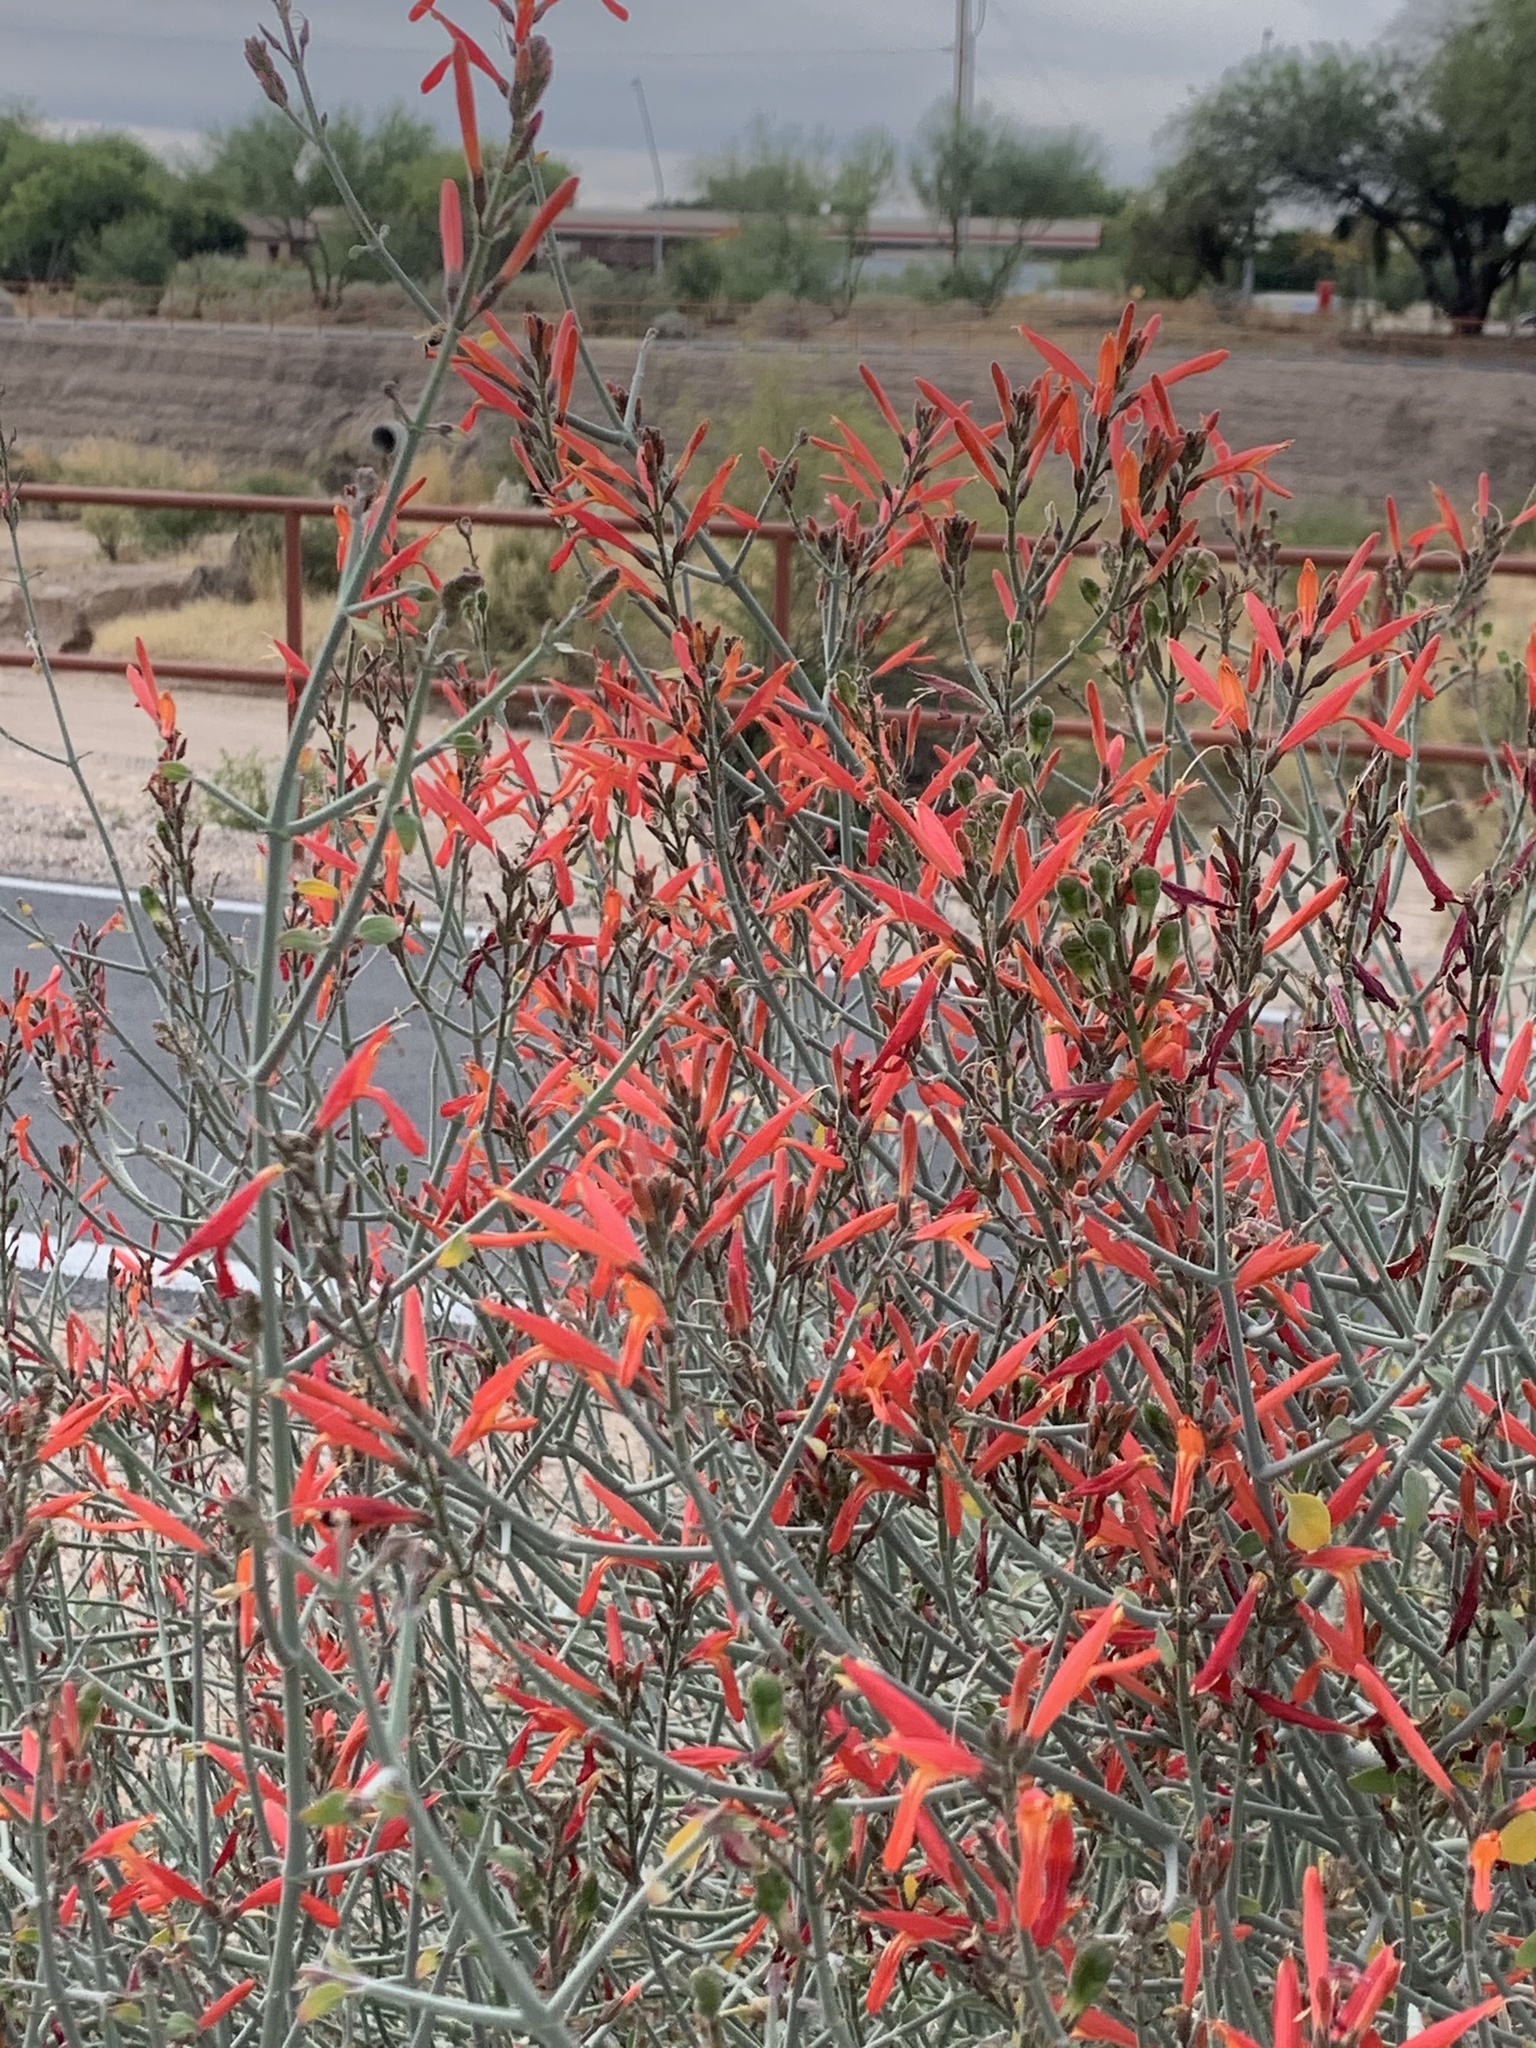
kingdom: Plantae
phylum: Tracheophyta
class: Magnoliopsida
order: Myrtales
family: Onagraceae
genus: Epilobium
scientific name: Epilobium canum
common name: California-fuchsia
